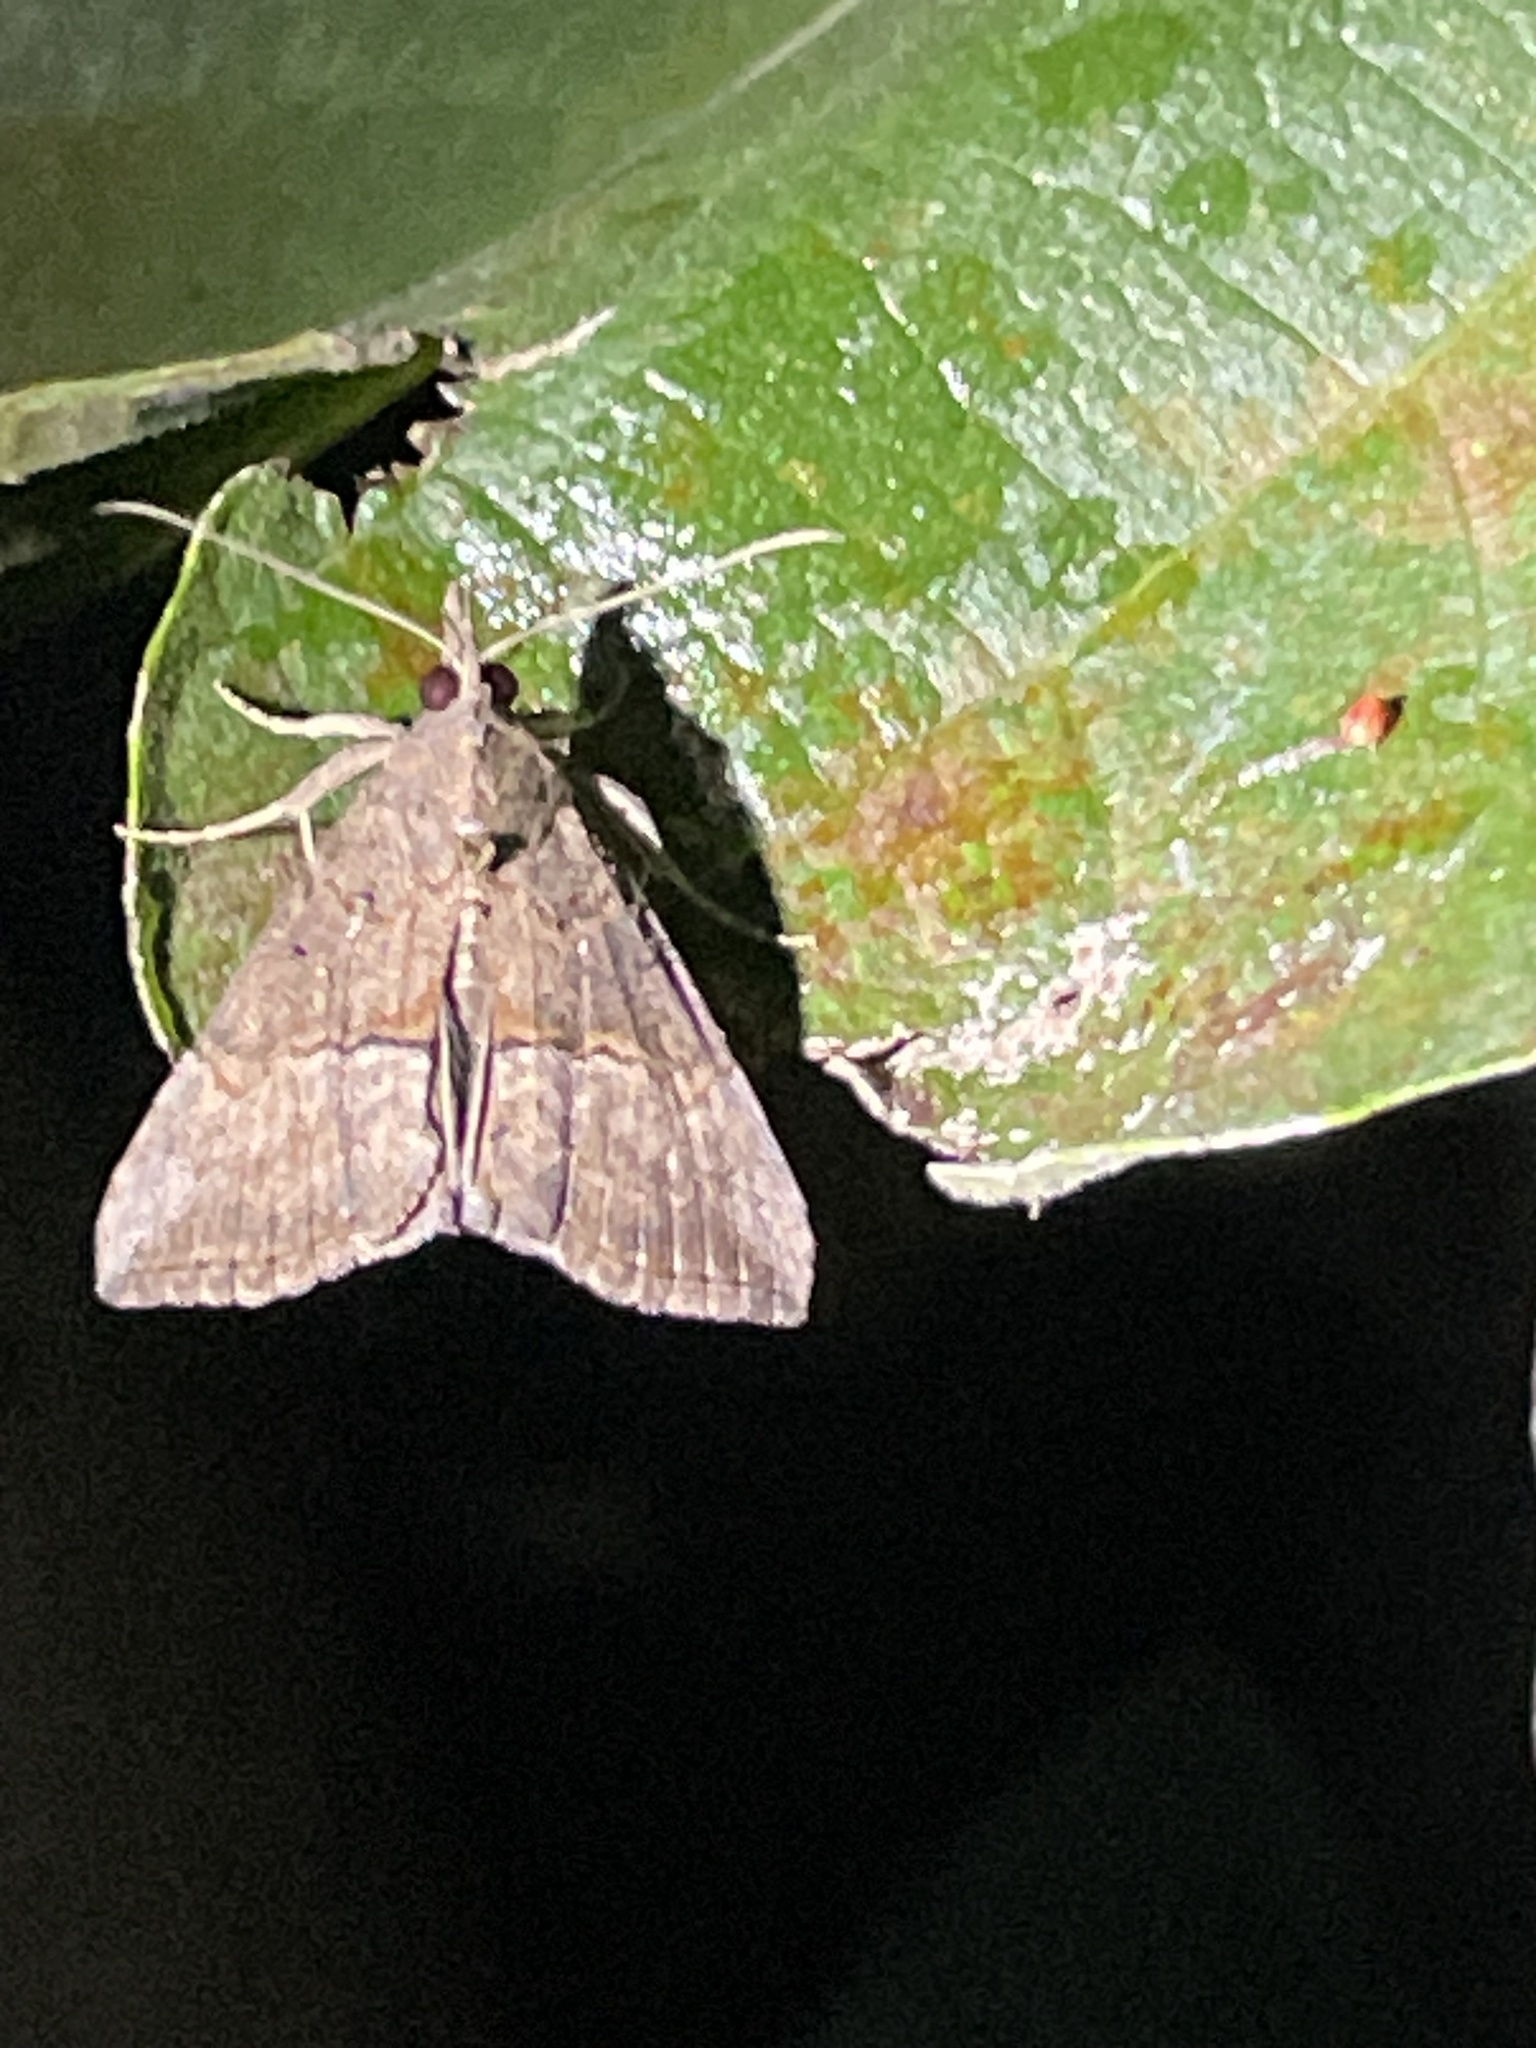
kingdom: Animalia
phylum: Arthropoda
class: Insecta
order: Lepidoptera
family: Erebidae
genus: Hypena
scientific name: Hypena scabra
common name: Green cloverworm
